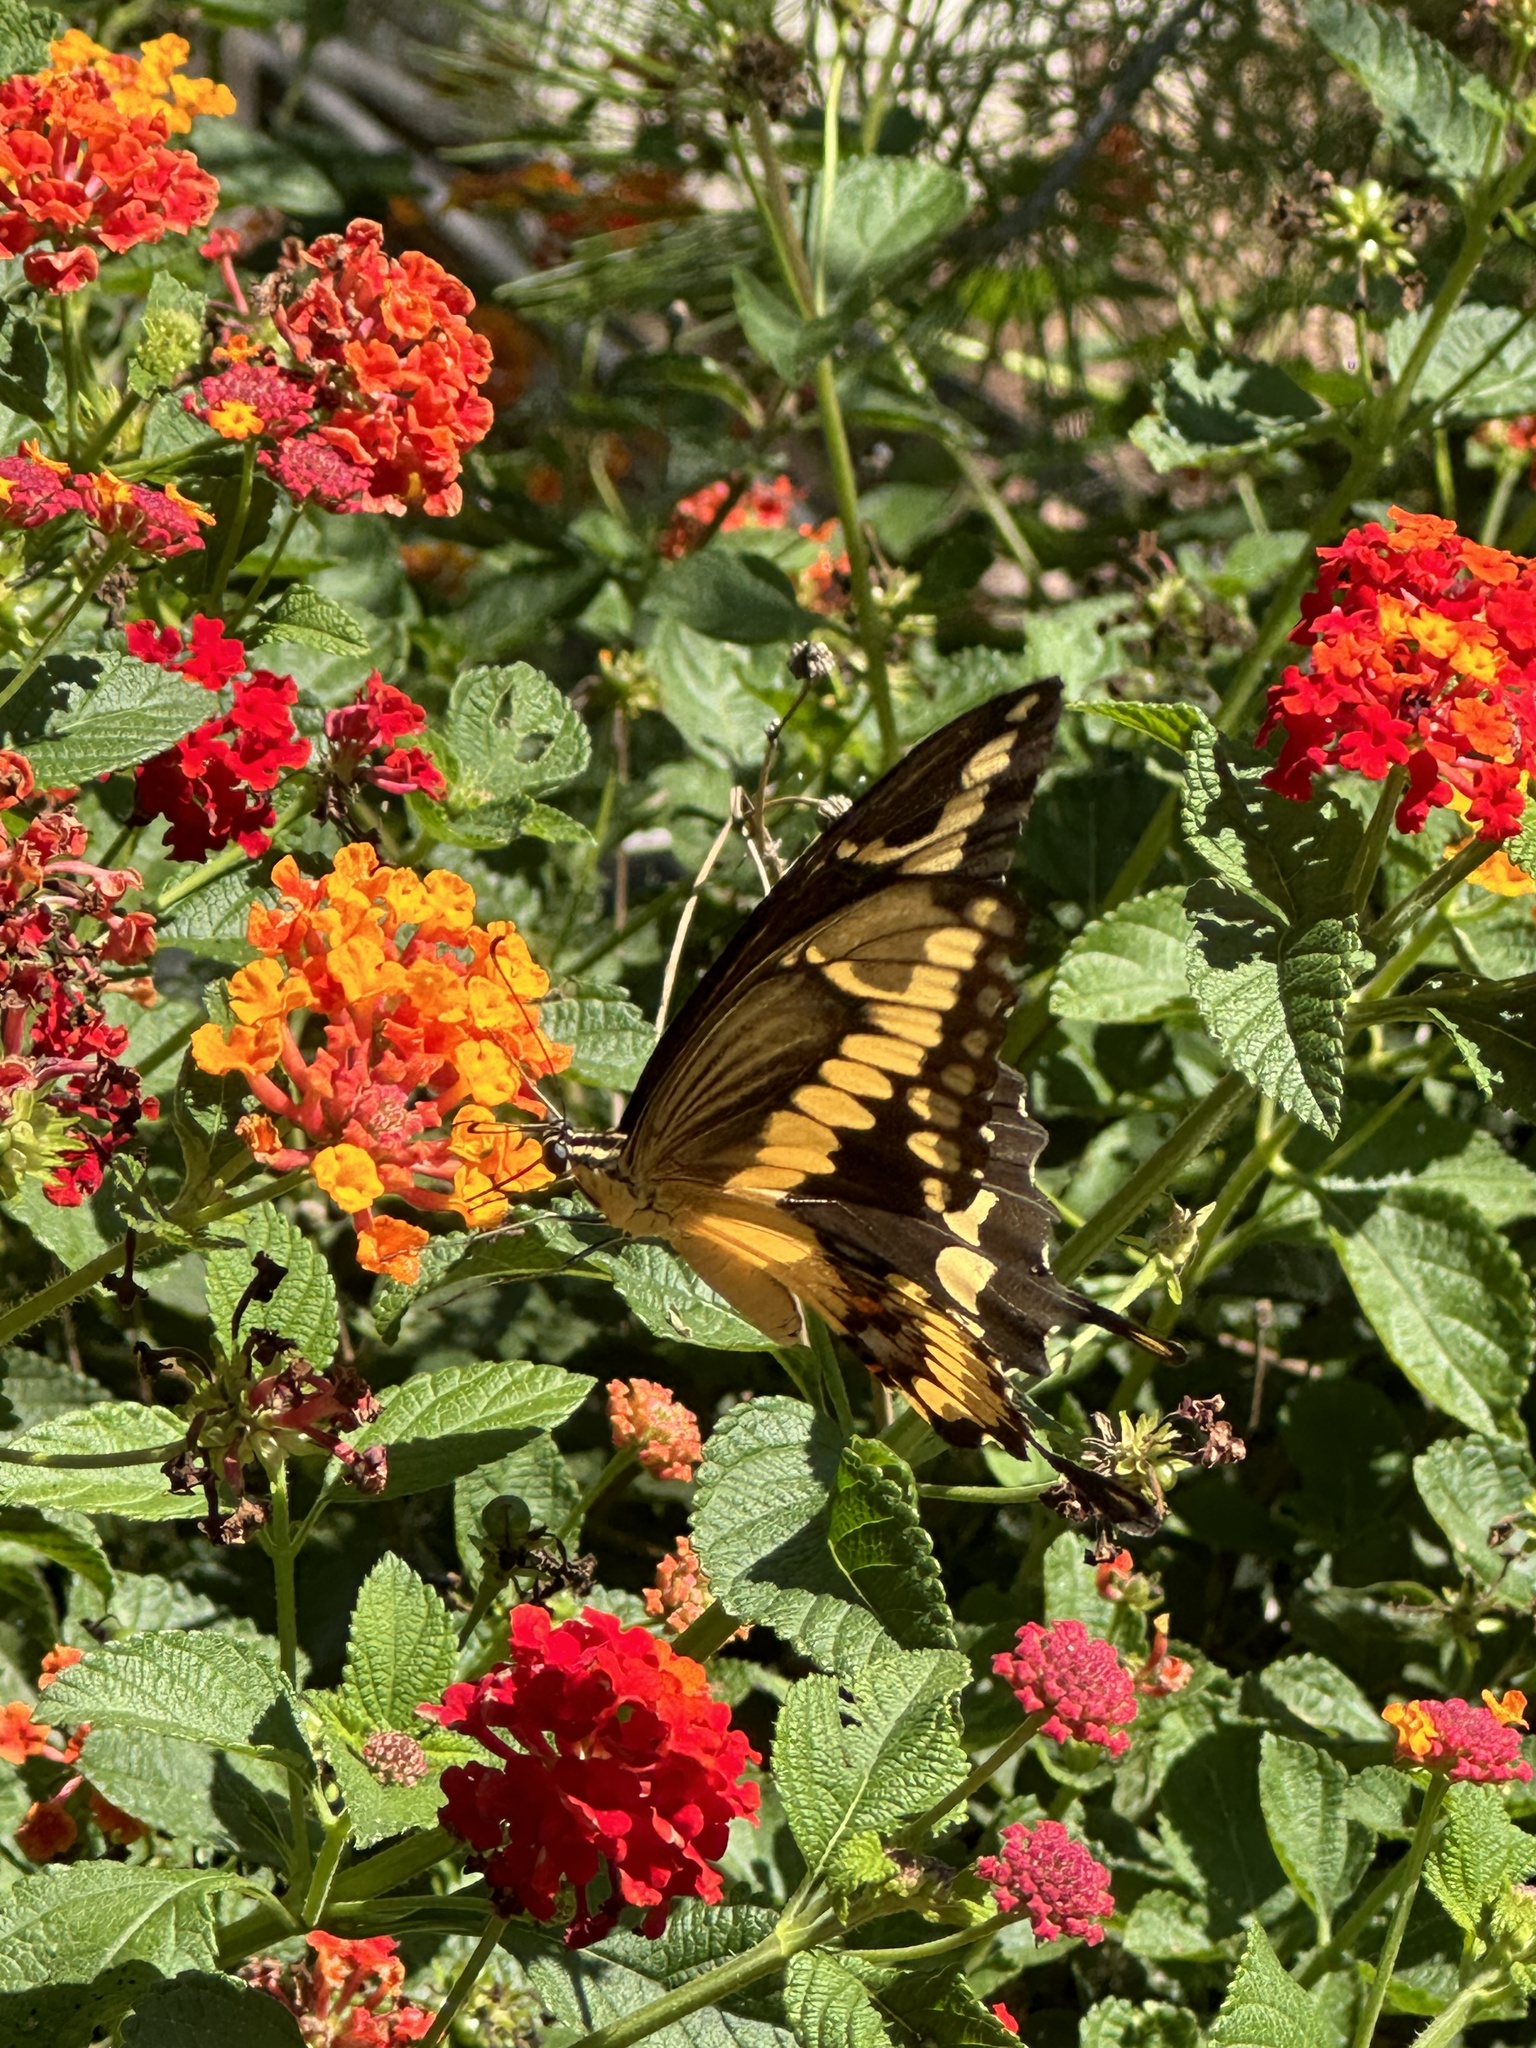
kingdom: Animalia
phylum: Arthropoda
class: Insecta
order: Lepidoptera
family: Papilionidae
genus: Papilio
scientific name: Papilio rumiko
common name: Western giant swallowtail
